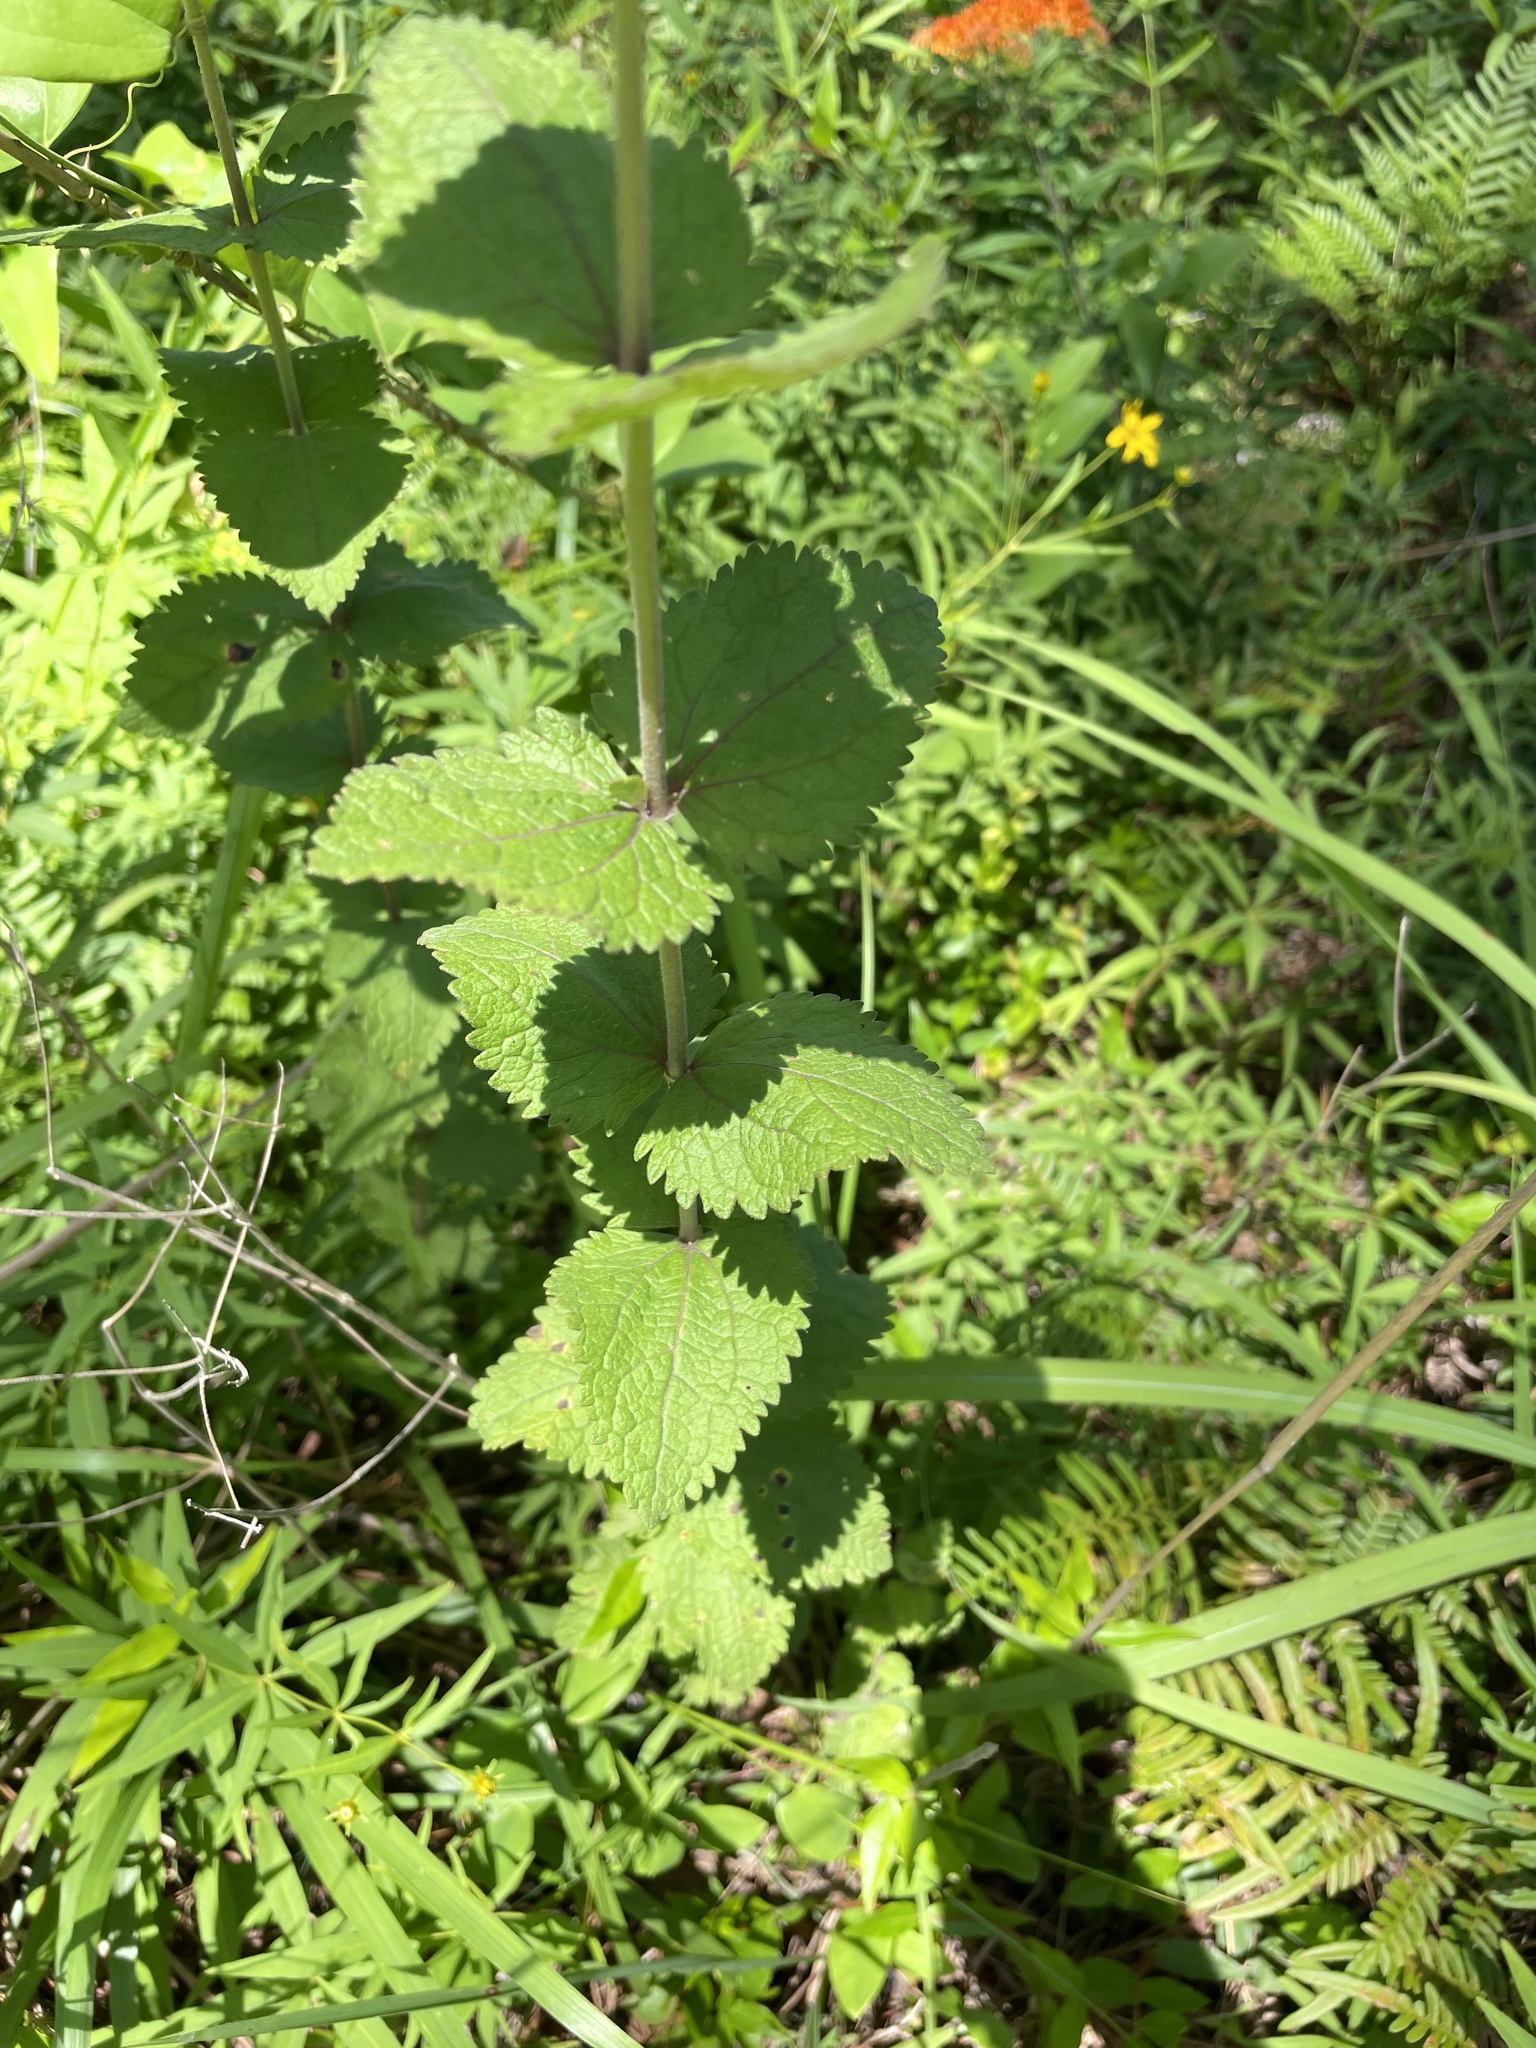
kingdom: Plantae
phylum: Tracheophyta
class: Magnoliopsida
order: Asterales
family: Asteraceae
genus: Eupatorium
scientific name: Eupatorium rotundifolium
